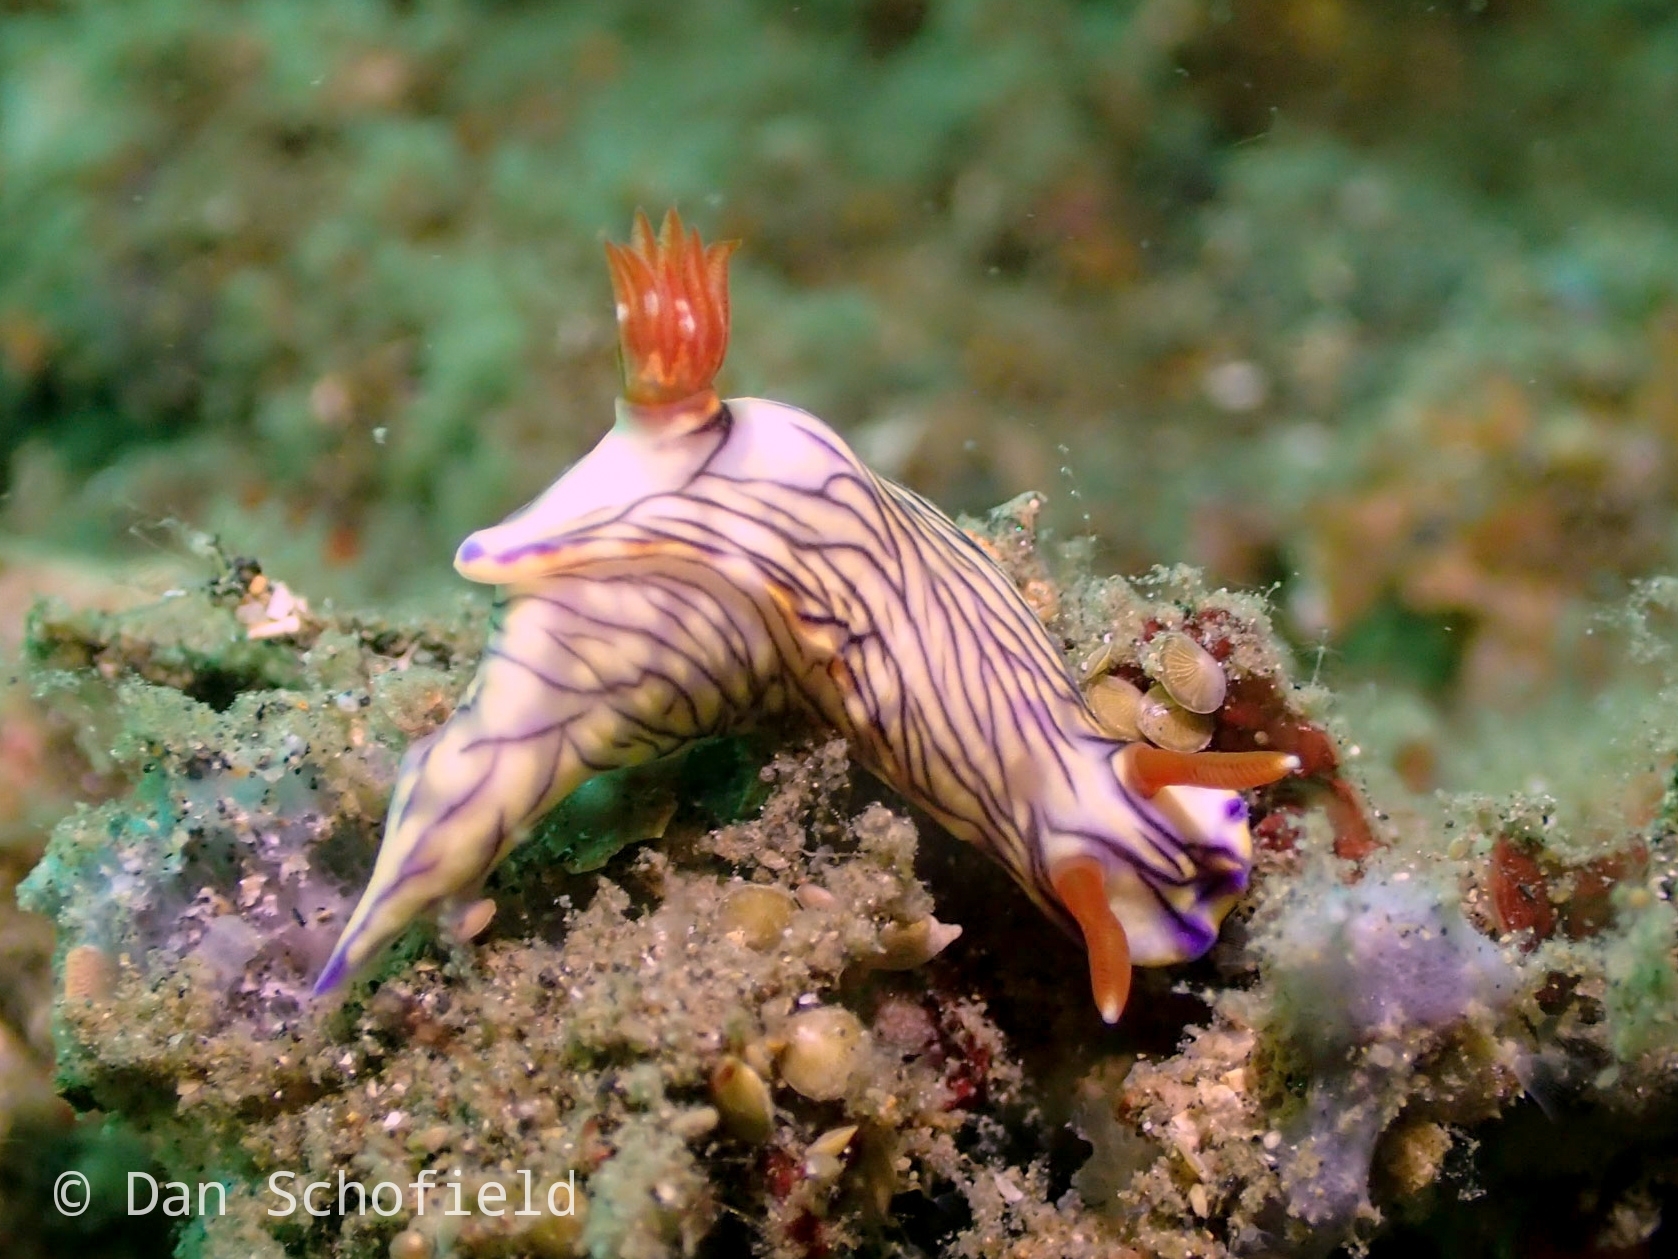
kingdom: Animalia
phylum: Mollusca
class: Gastropoda
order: Nudibranchia
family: Chromodorididae
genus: Hypselodoris
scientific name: Hypselodoris zephyra
